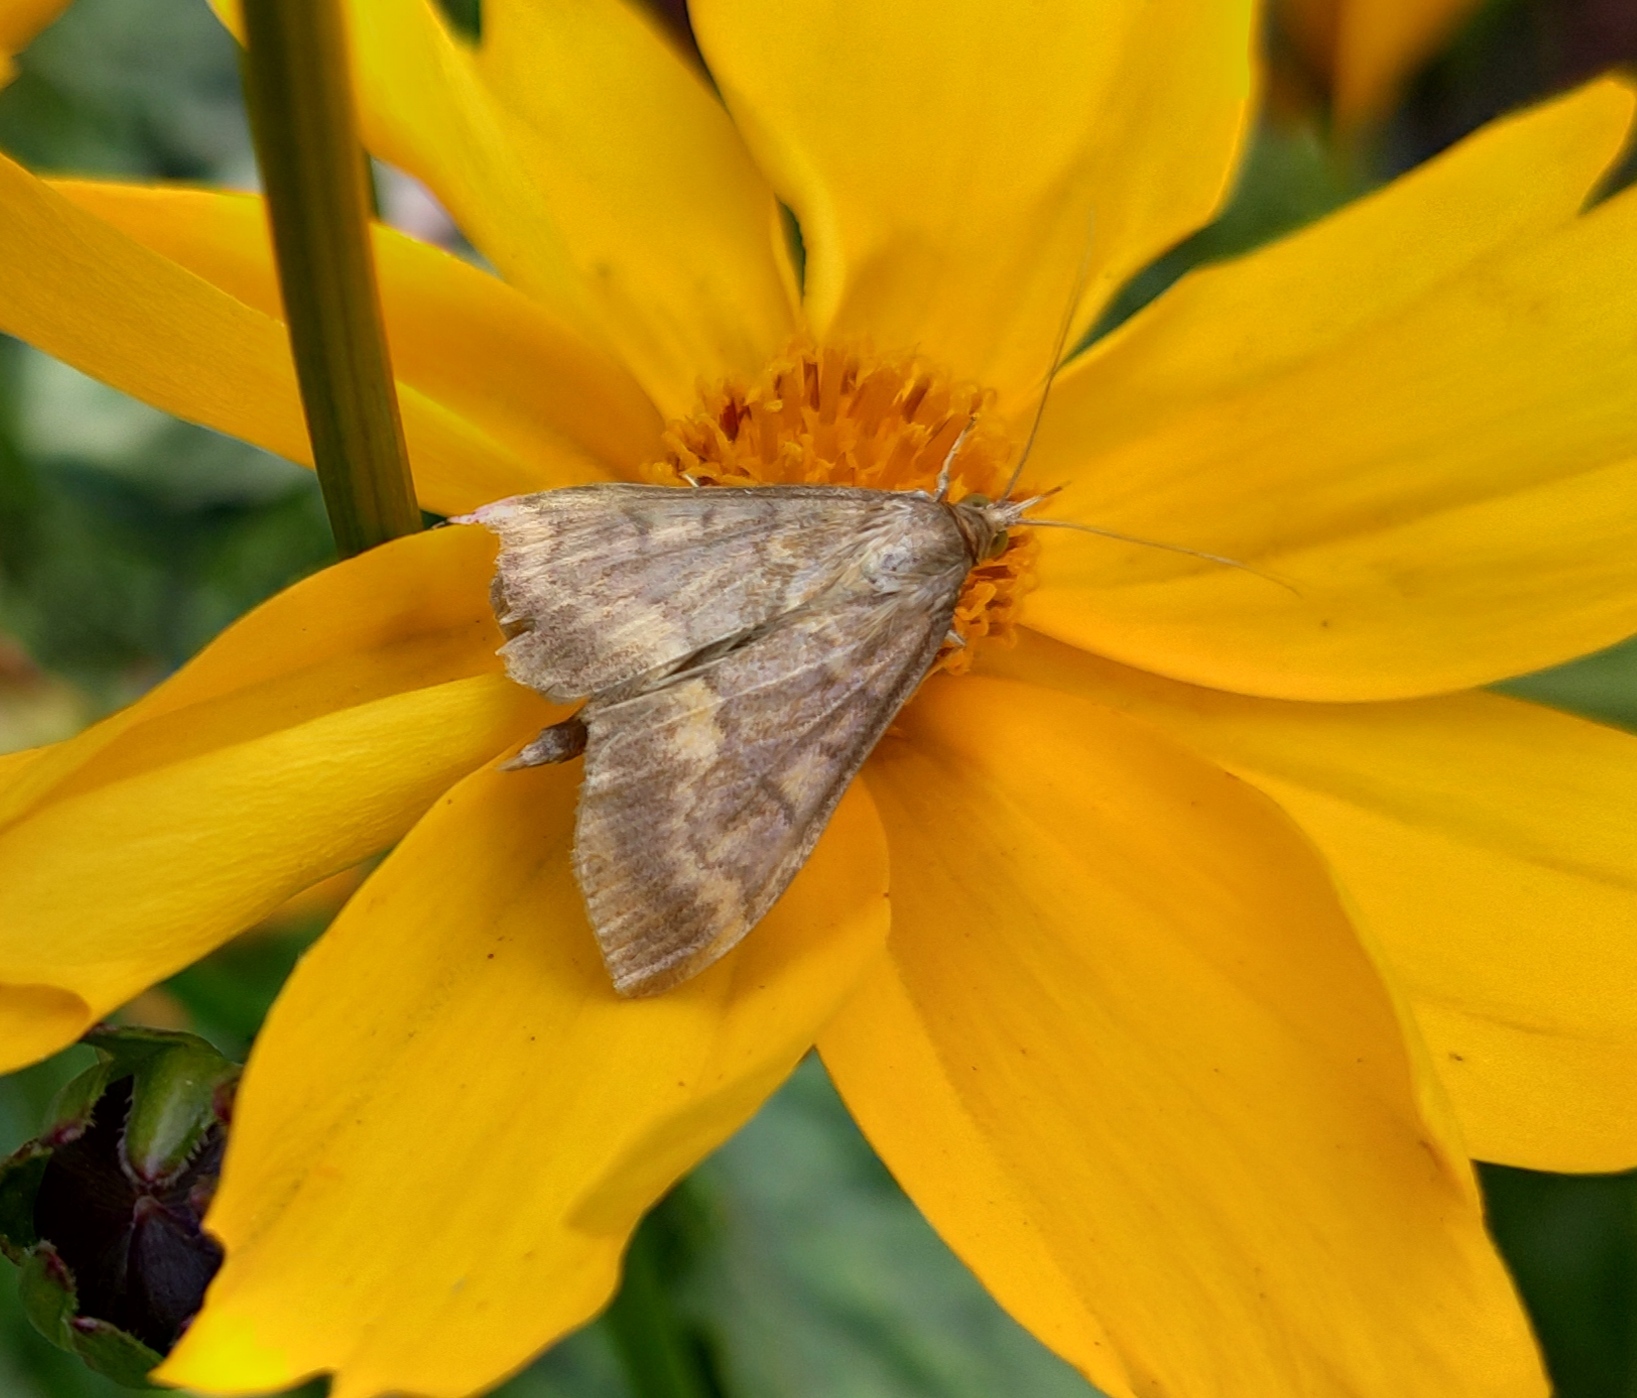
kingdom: Animalia
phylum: Arthropoda
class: Insecta
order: Lepidoptera
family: Crambidae
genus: Ostrinia
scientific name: Ostrinia nubilalis
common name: European corn borer
